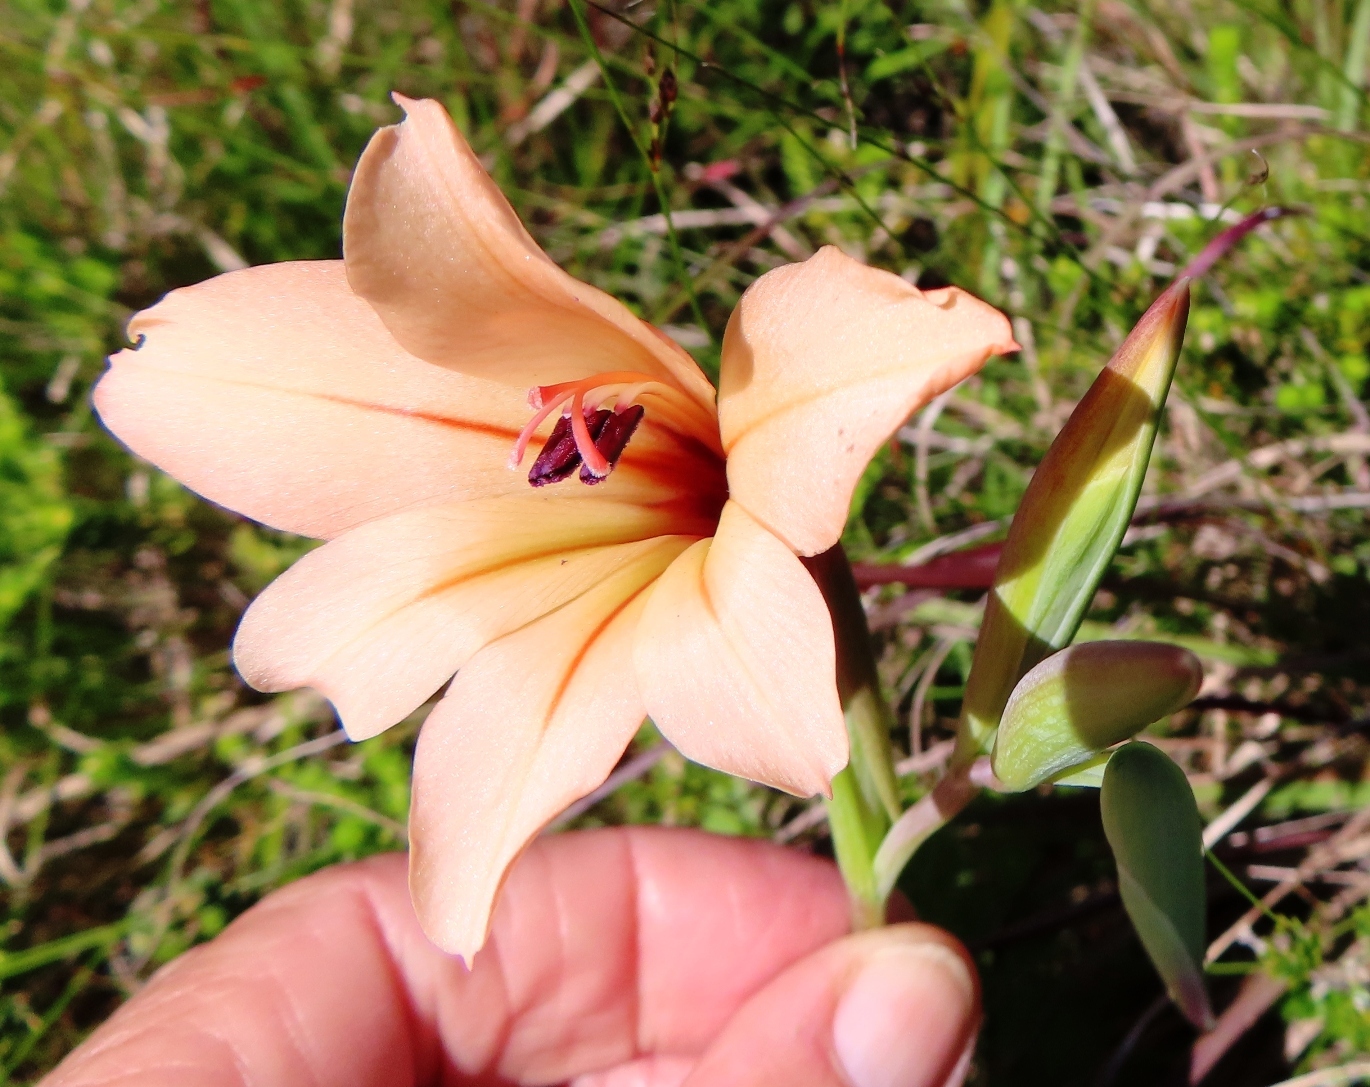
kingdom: Plantae
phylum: Tracheophyta
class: Liliopsida
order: Asparagales
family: Iridaceae
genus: Gladiolus
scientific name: Gladiolus miniatus
